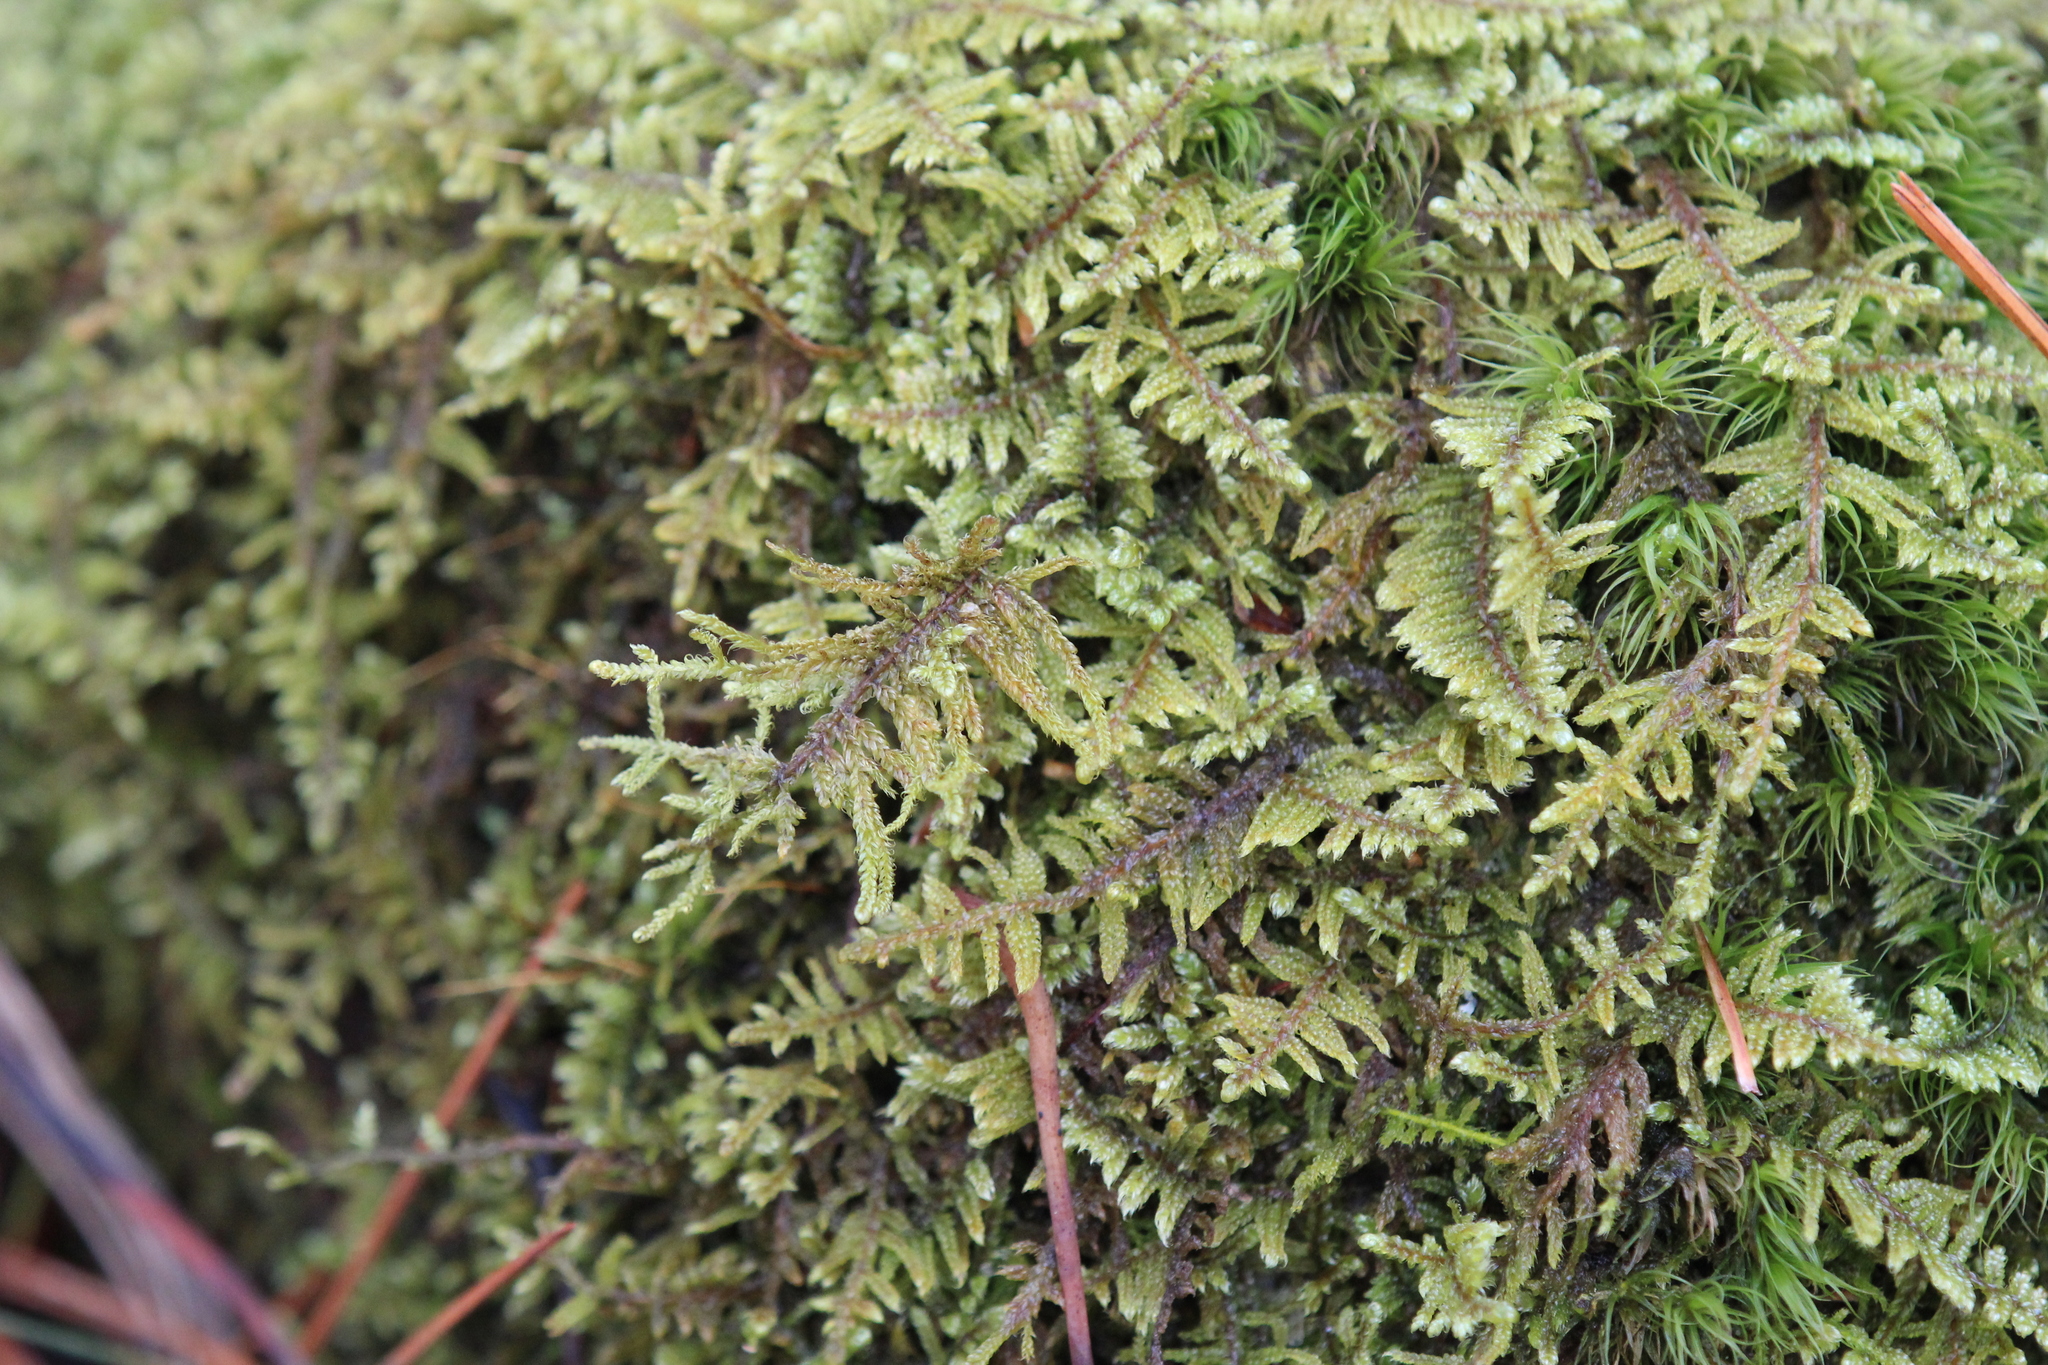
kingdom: Plantae
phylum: Bryophyta
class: Bryopsida
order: Hypnales
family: Callicladiaceae
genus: Callicladium
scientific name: Callicladium imponens
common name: Brocade moss
